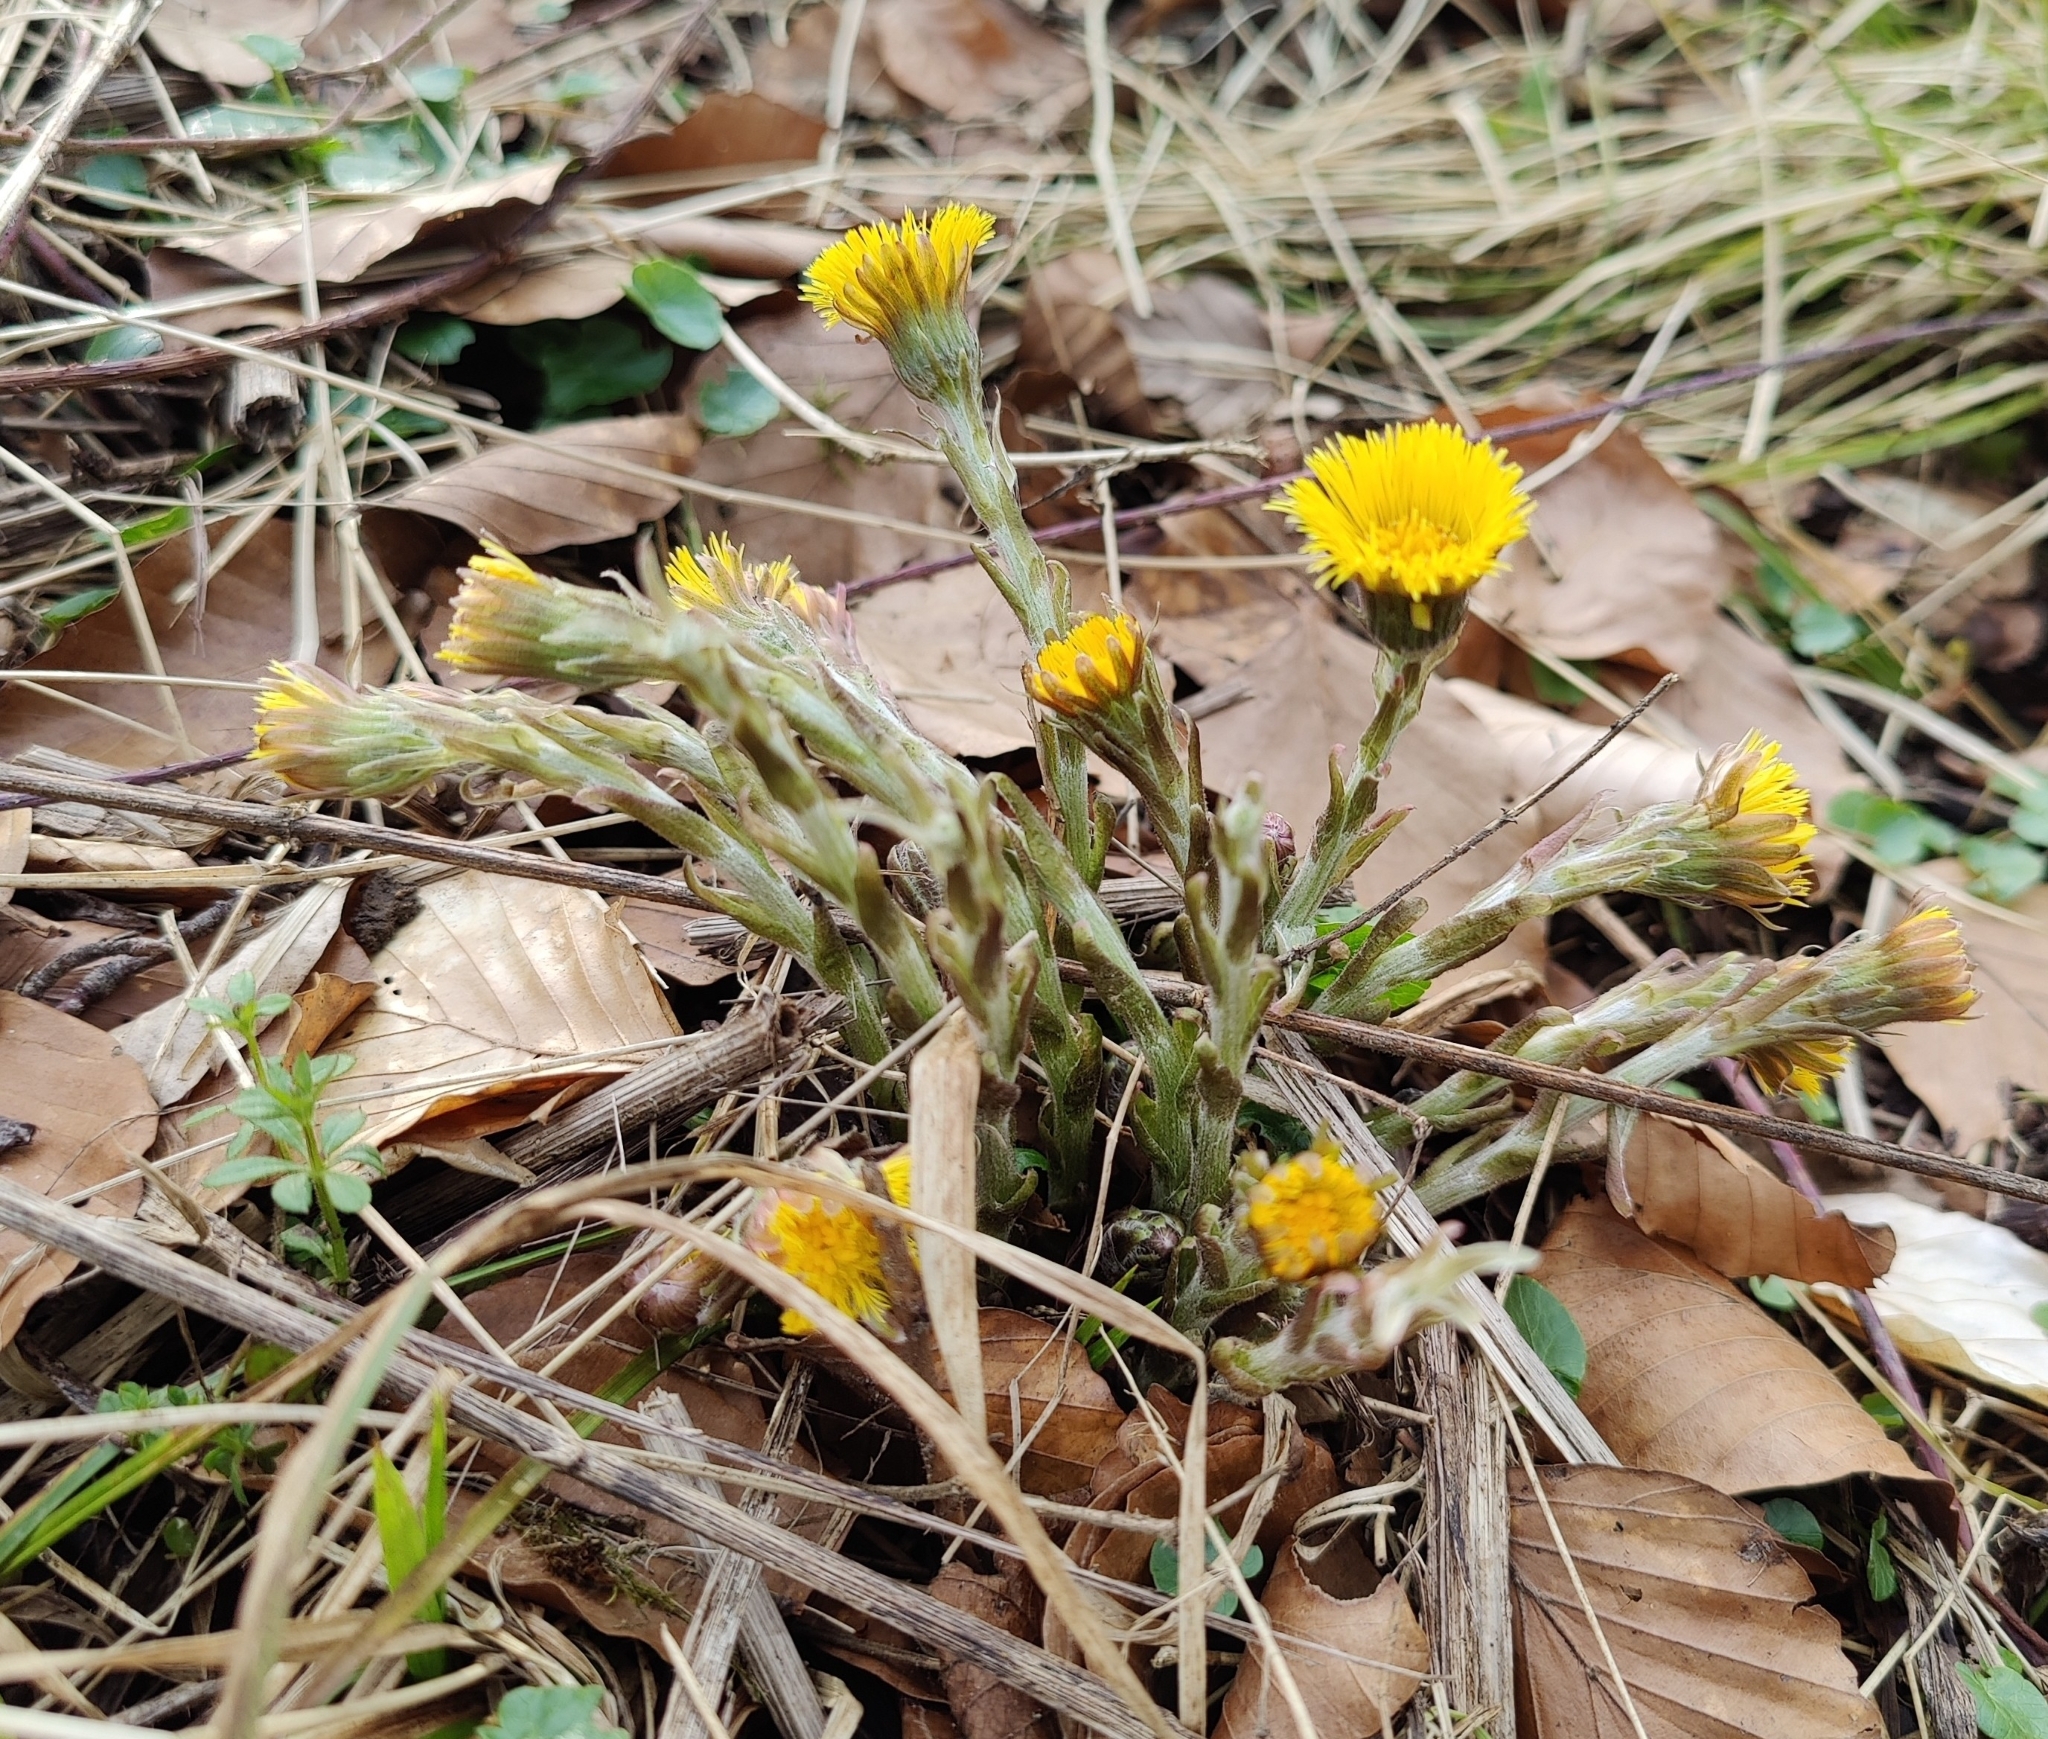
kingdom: Plantae
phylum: Tracheophyta
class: Magnoliopsida
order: Asterales
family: Asteraceae
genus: Tussilago
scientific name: Tussilago farfara
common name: Coltsfoot
